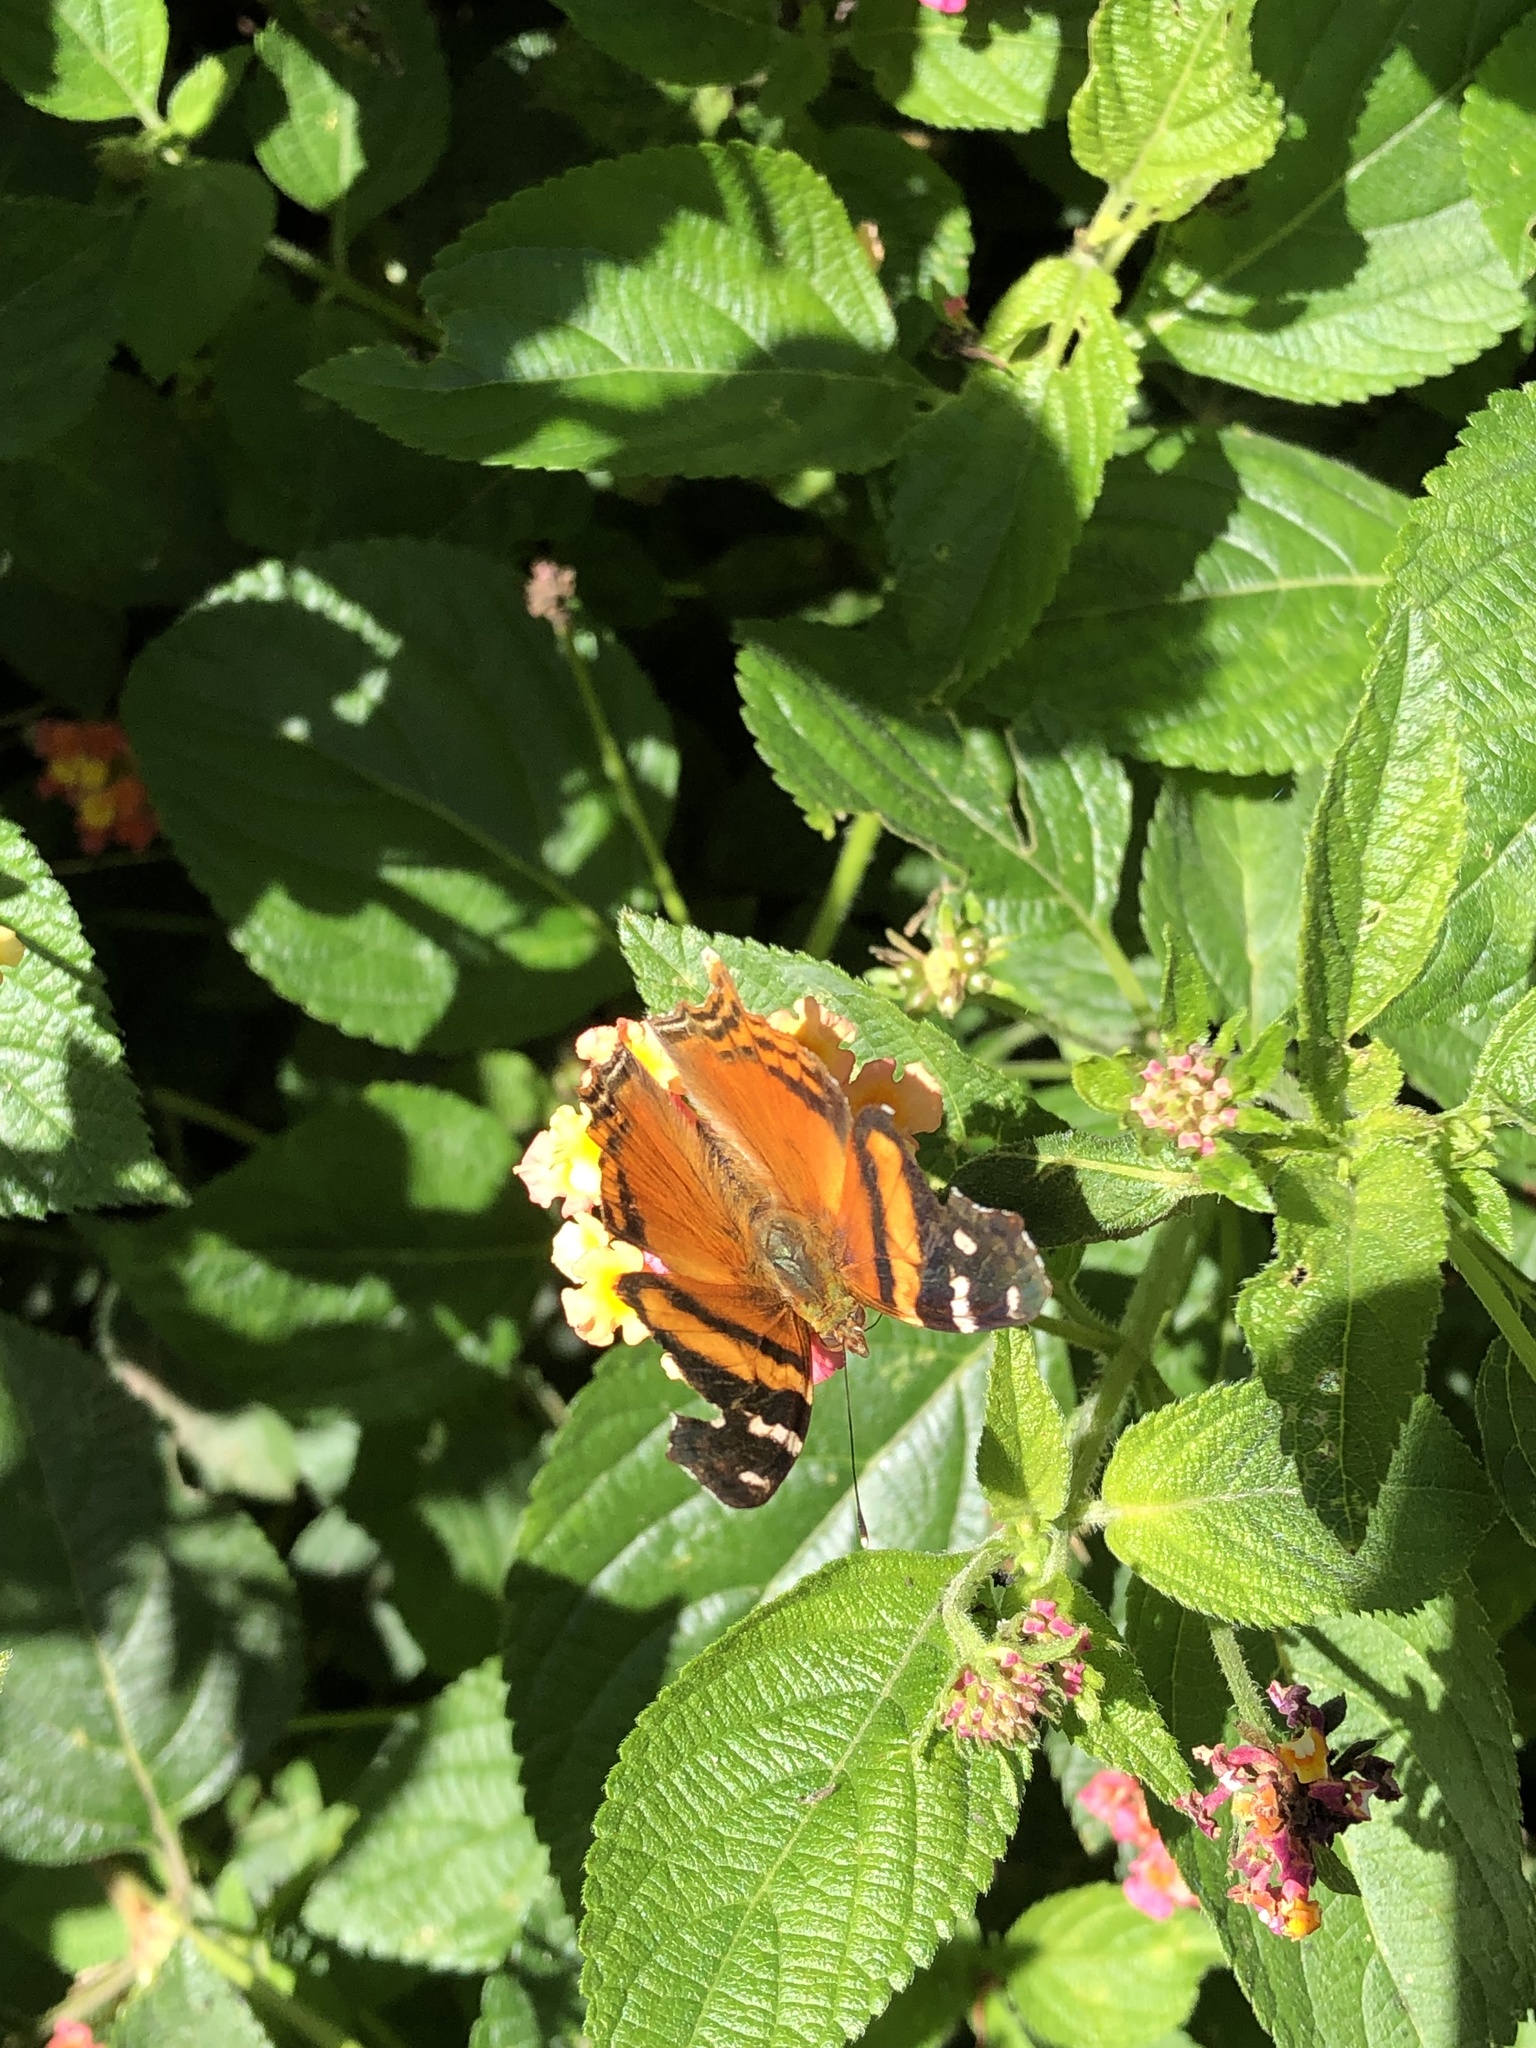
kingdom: Animalia
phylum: Arthropoda
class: Insecta
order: Lepidoptera
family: Nymphalidae
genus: Hypanartia
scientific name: Hypanartia bella
